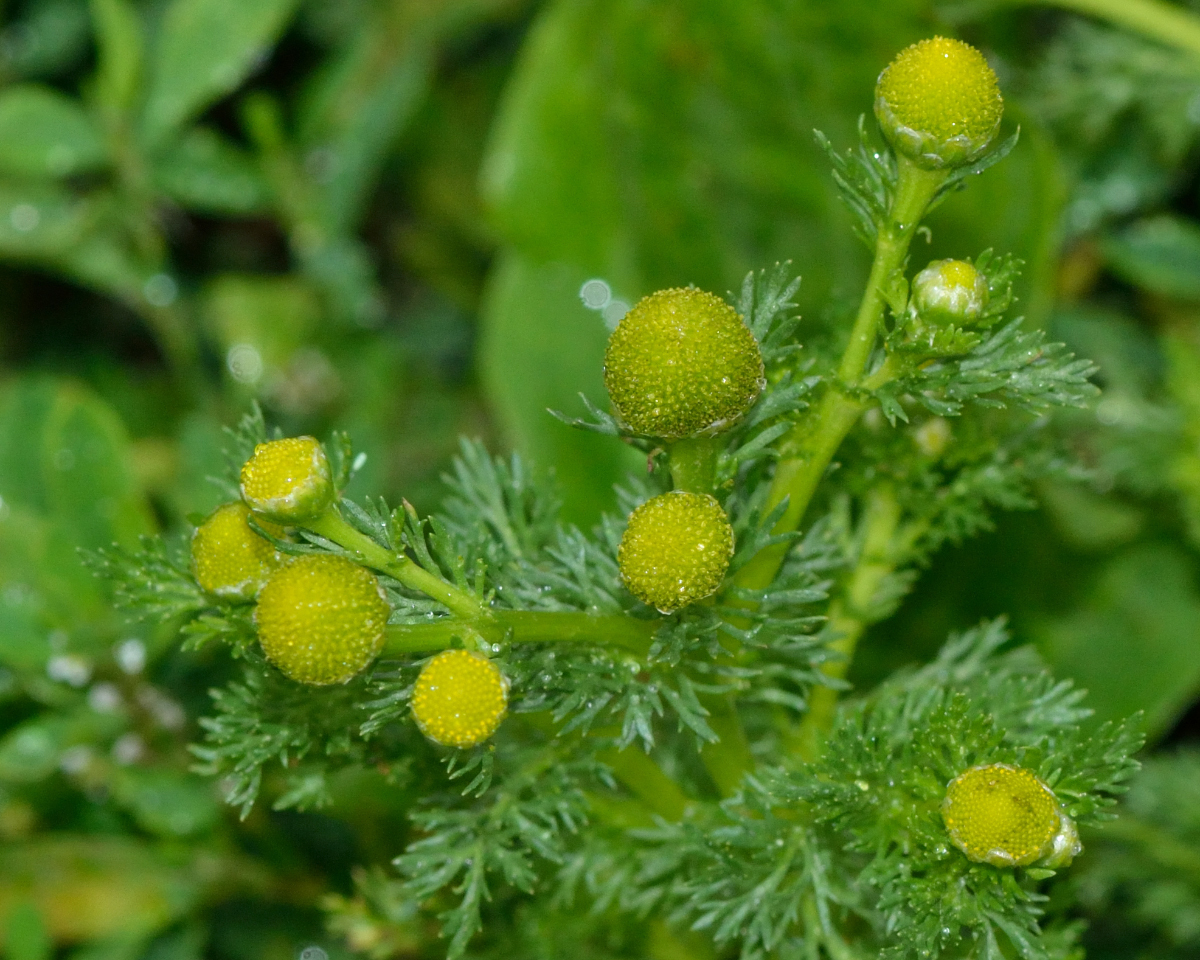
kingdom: Plantae
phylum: Tracheophyta
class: Magnoliopsida
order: Asterales
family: Asteraceae
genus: Matricaria
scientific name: Matricaria discoidea
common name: Disc mayweed
